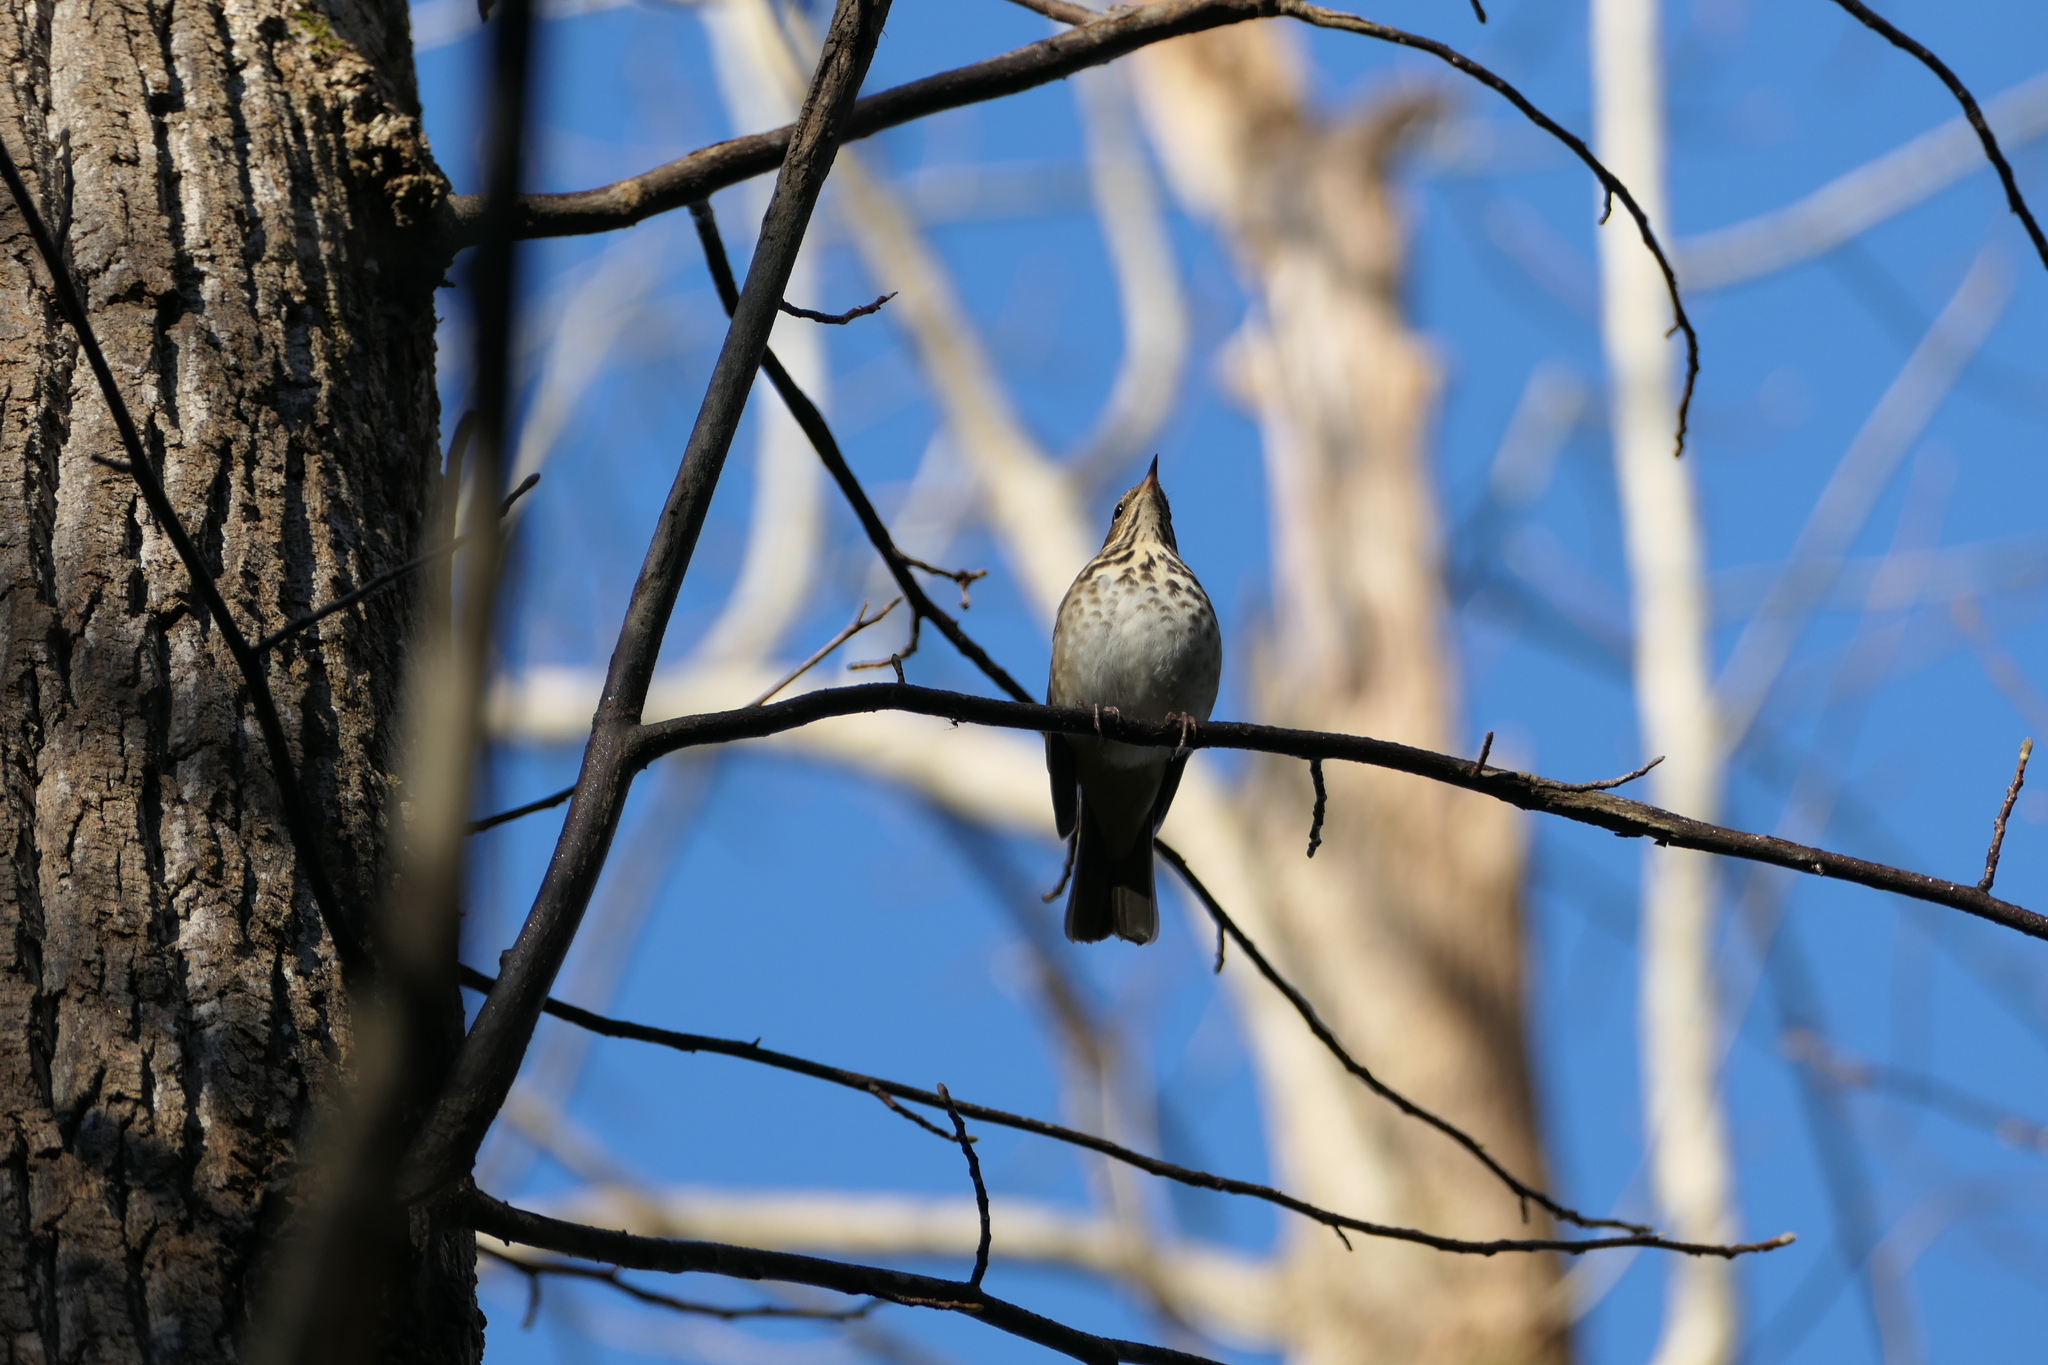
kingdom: Animalia
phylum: Chordata
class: Aves
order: Passeriformes
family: Turdidae
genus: Catharus
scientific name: Catharus guttatus
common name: Hermit thrush
